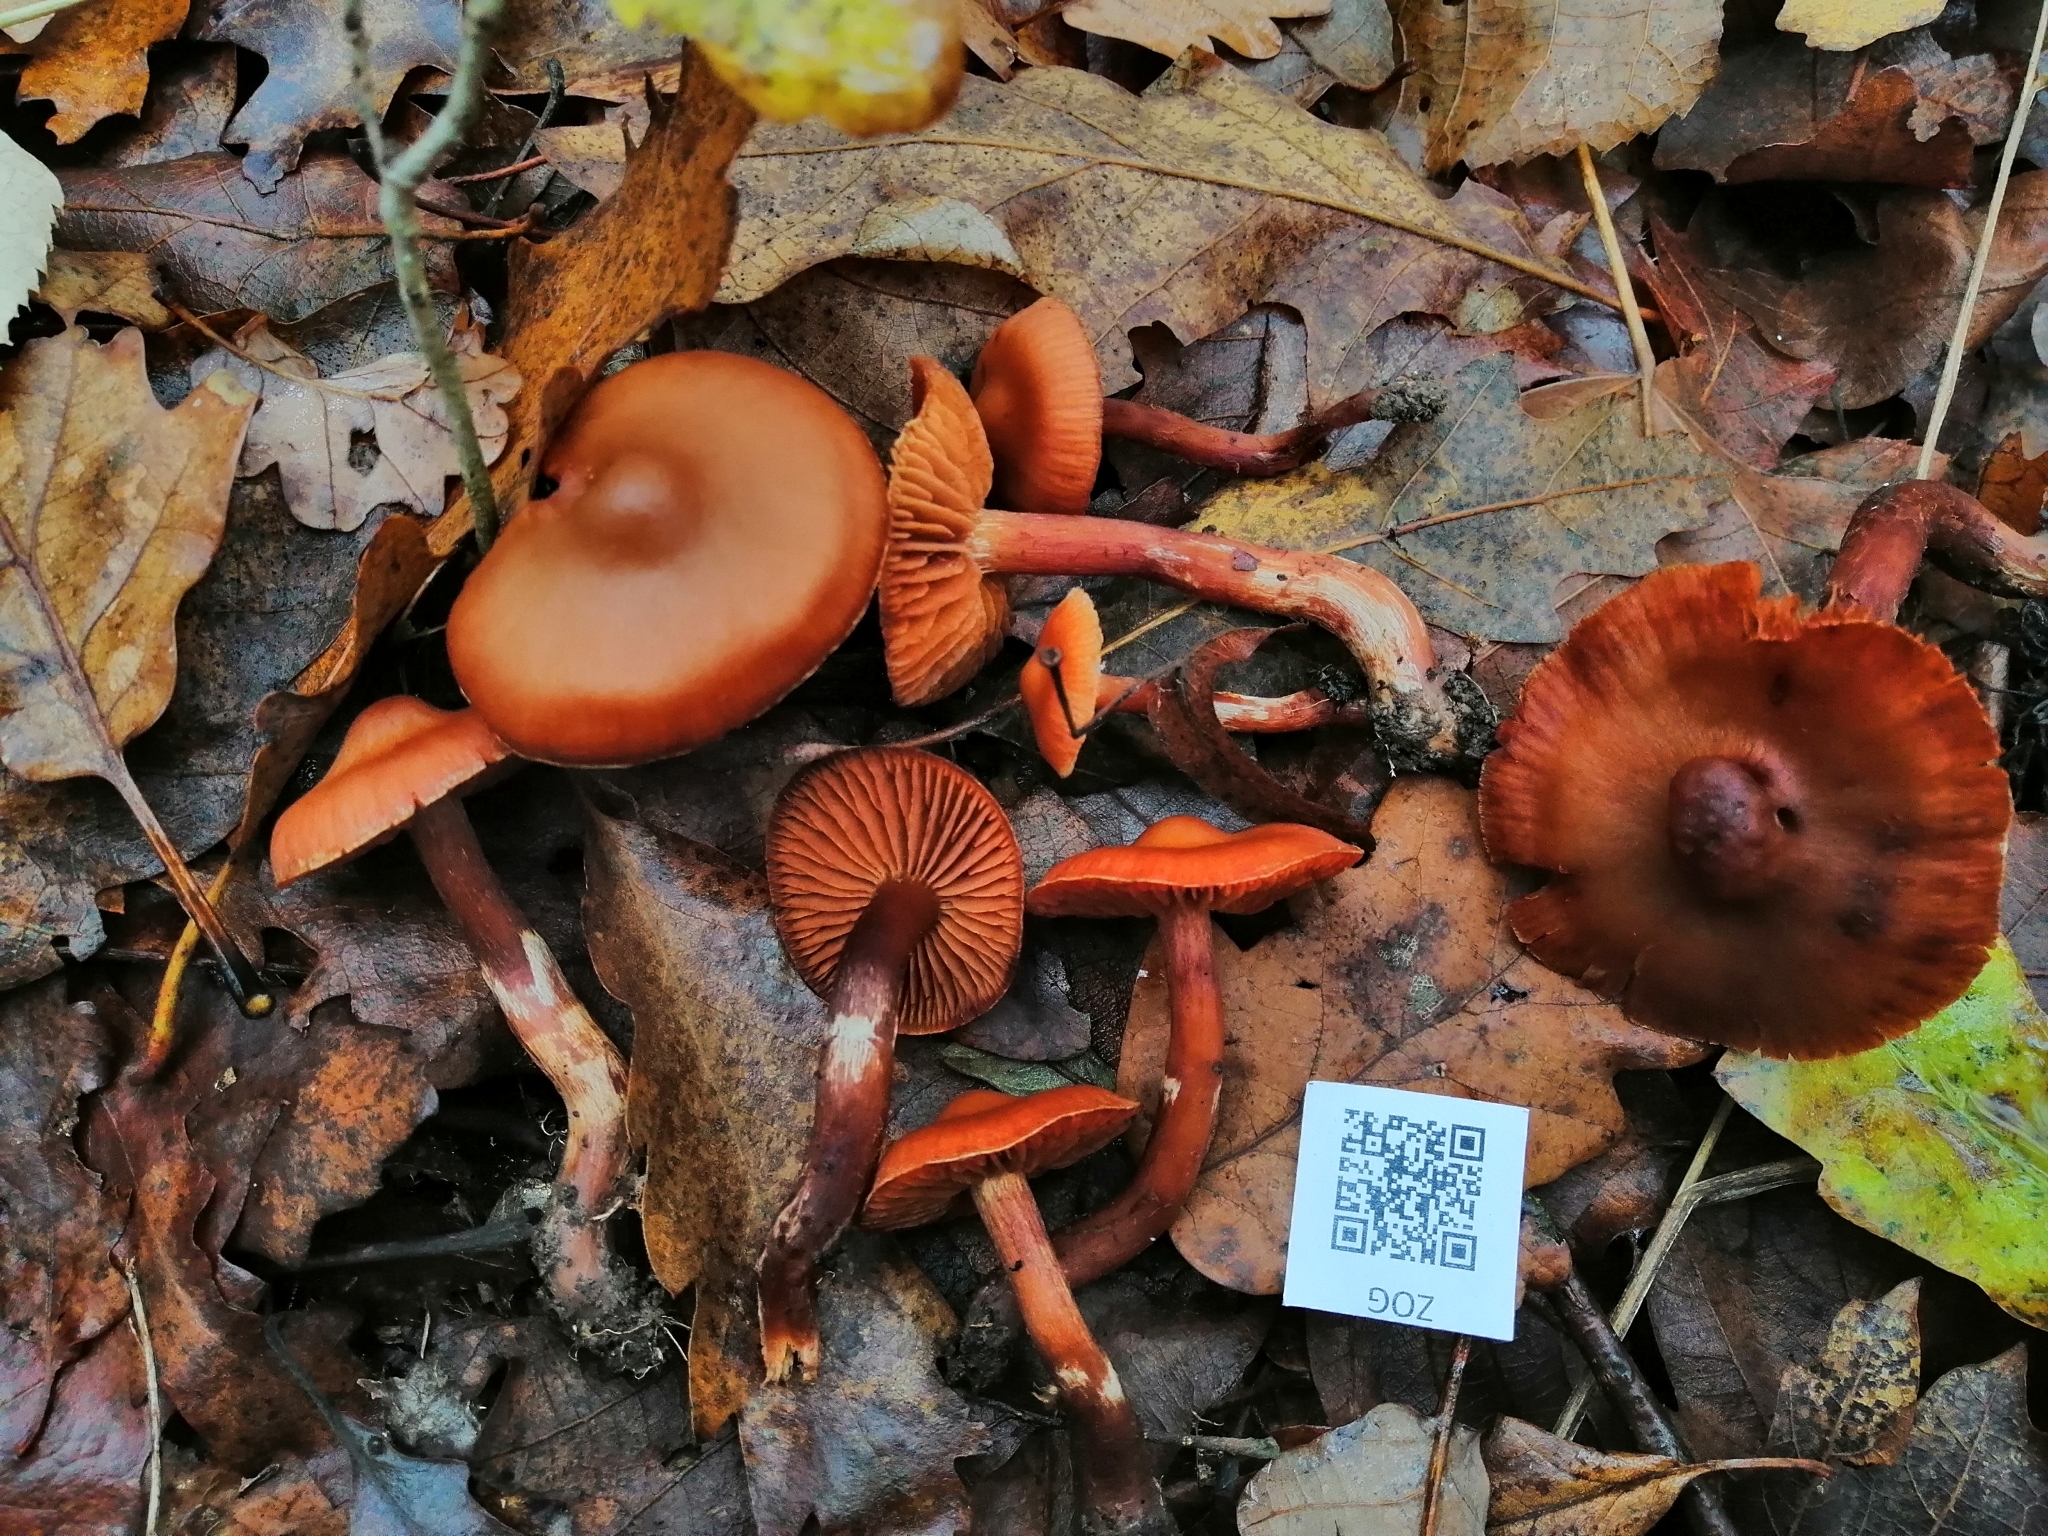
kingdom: Fungi
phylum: Basidiomycota
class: Agaricomycetes
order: Agaricales
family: Cortinariaceae
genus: Cortinarius
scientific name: Cortinarius lacustris
